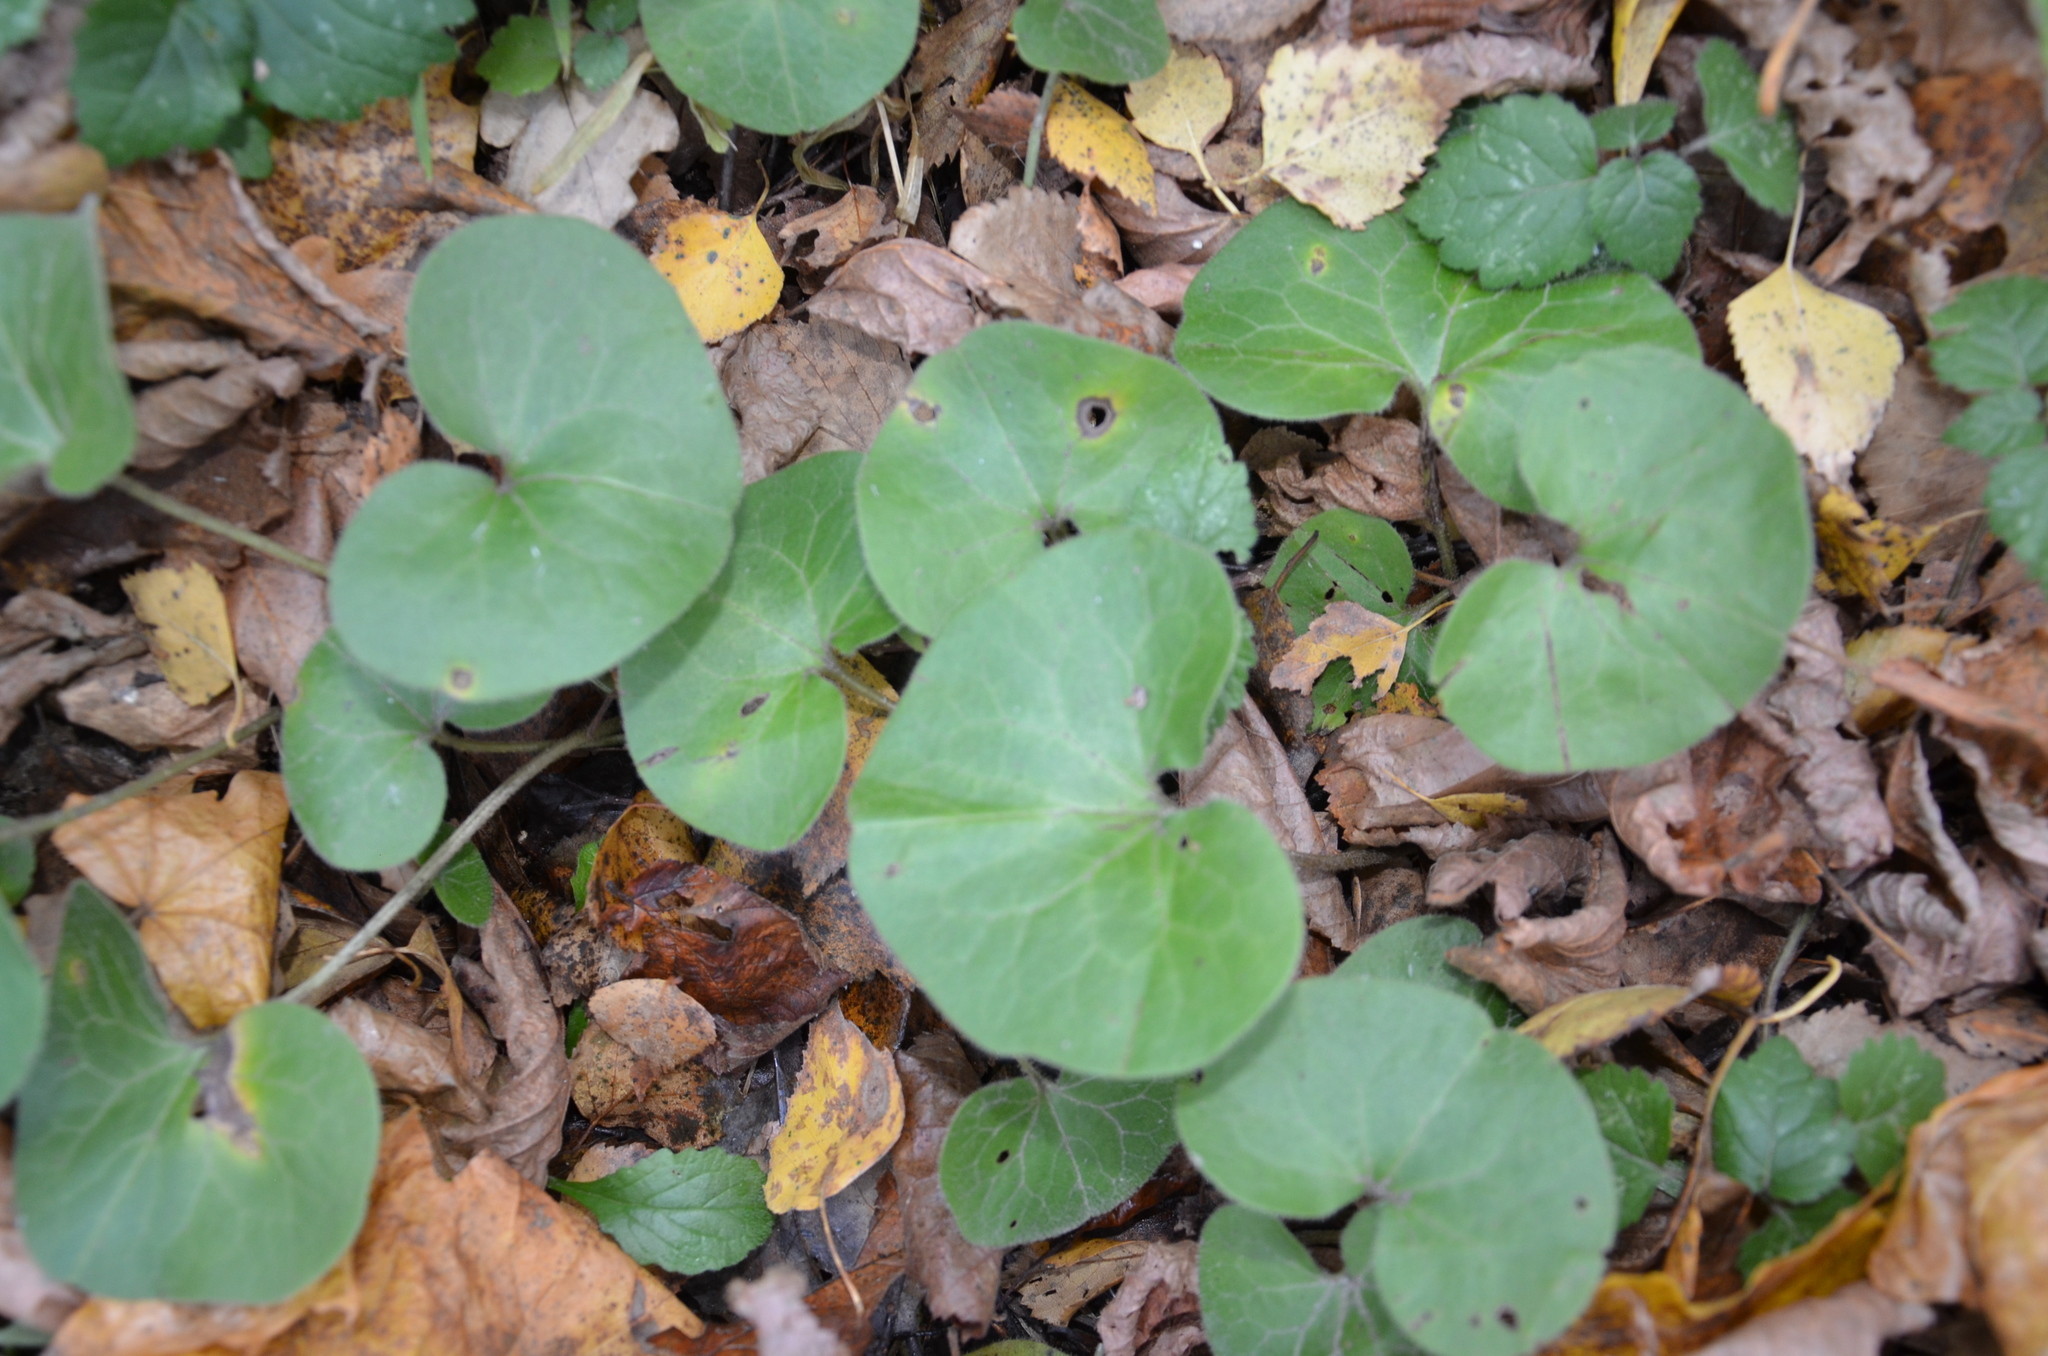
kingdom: Plantae
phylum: Tracheophyta
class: Magnoliopsida
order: Piperales
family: Aristolochiaceae
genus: Asarum
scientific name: Asarum europaeum
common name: Asarabacca
